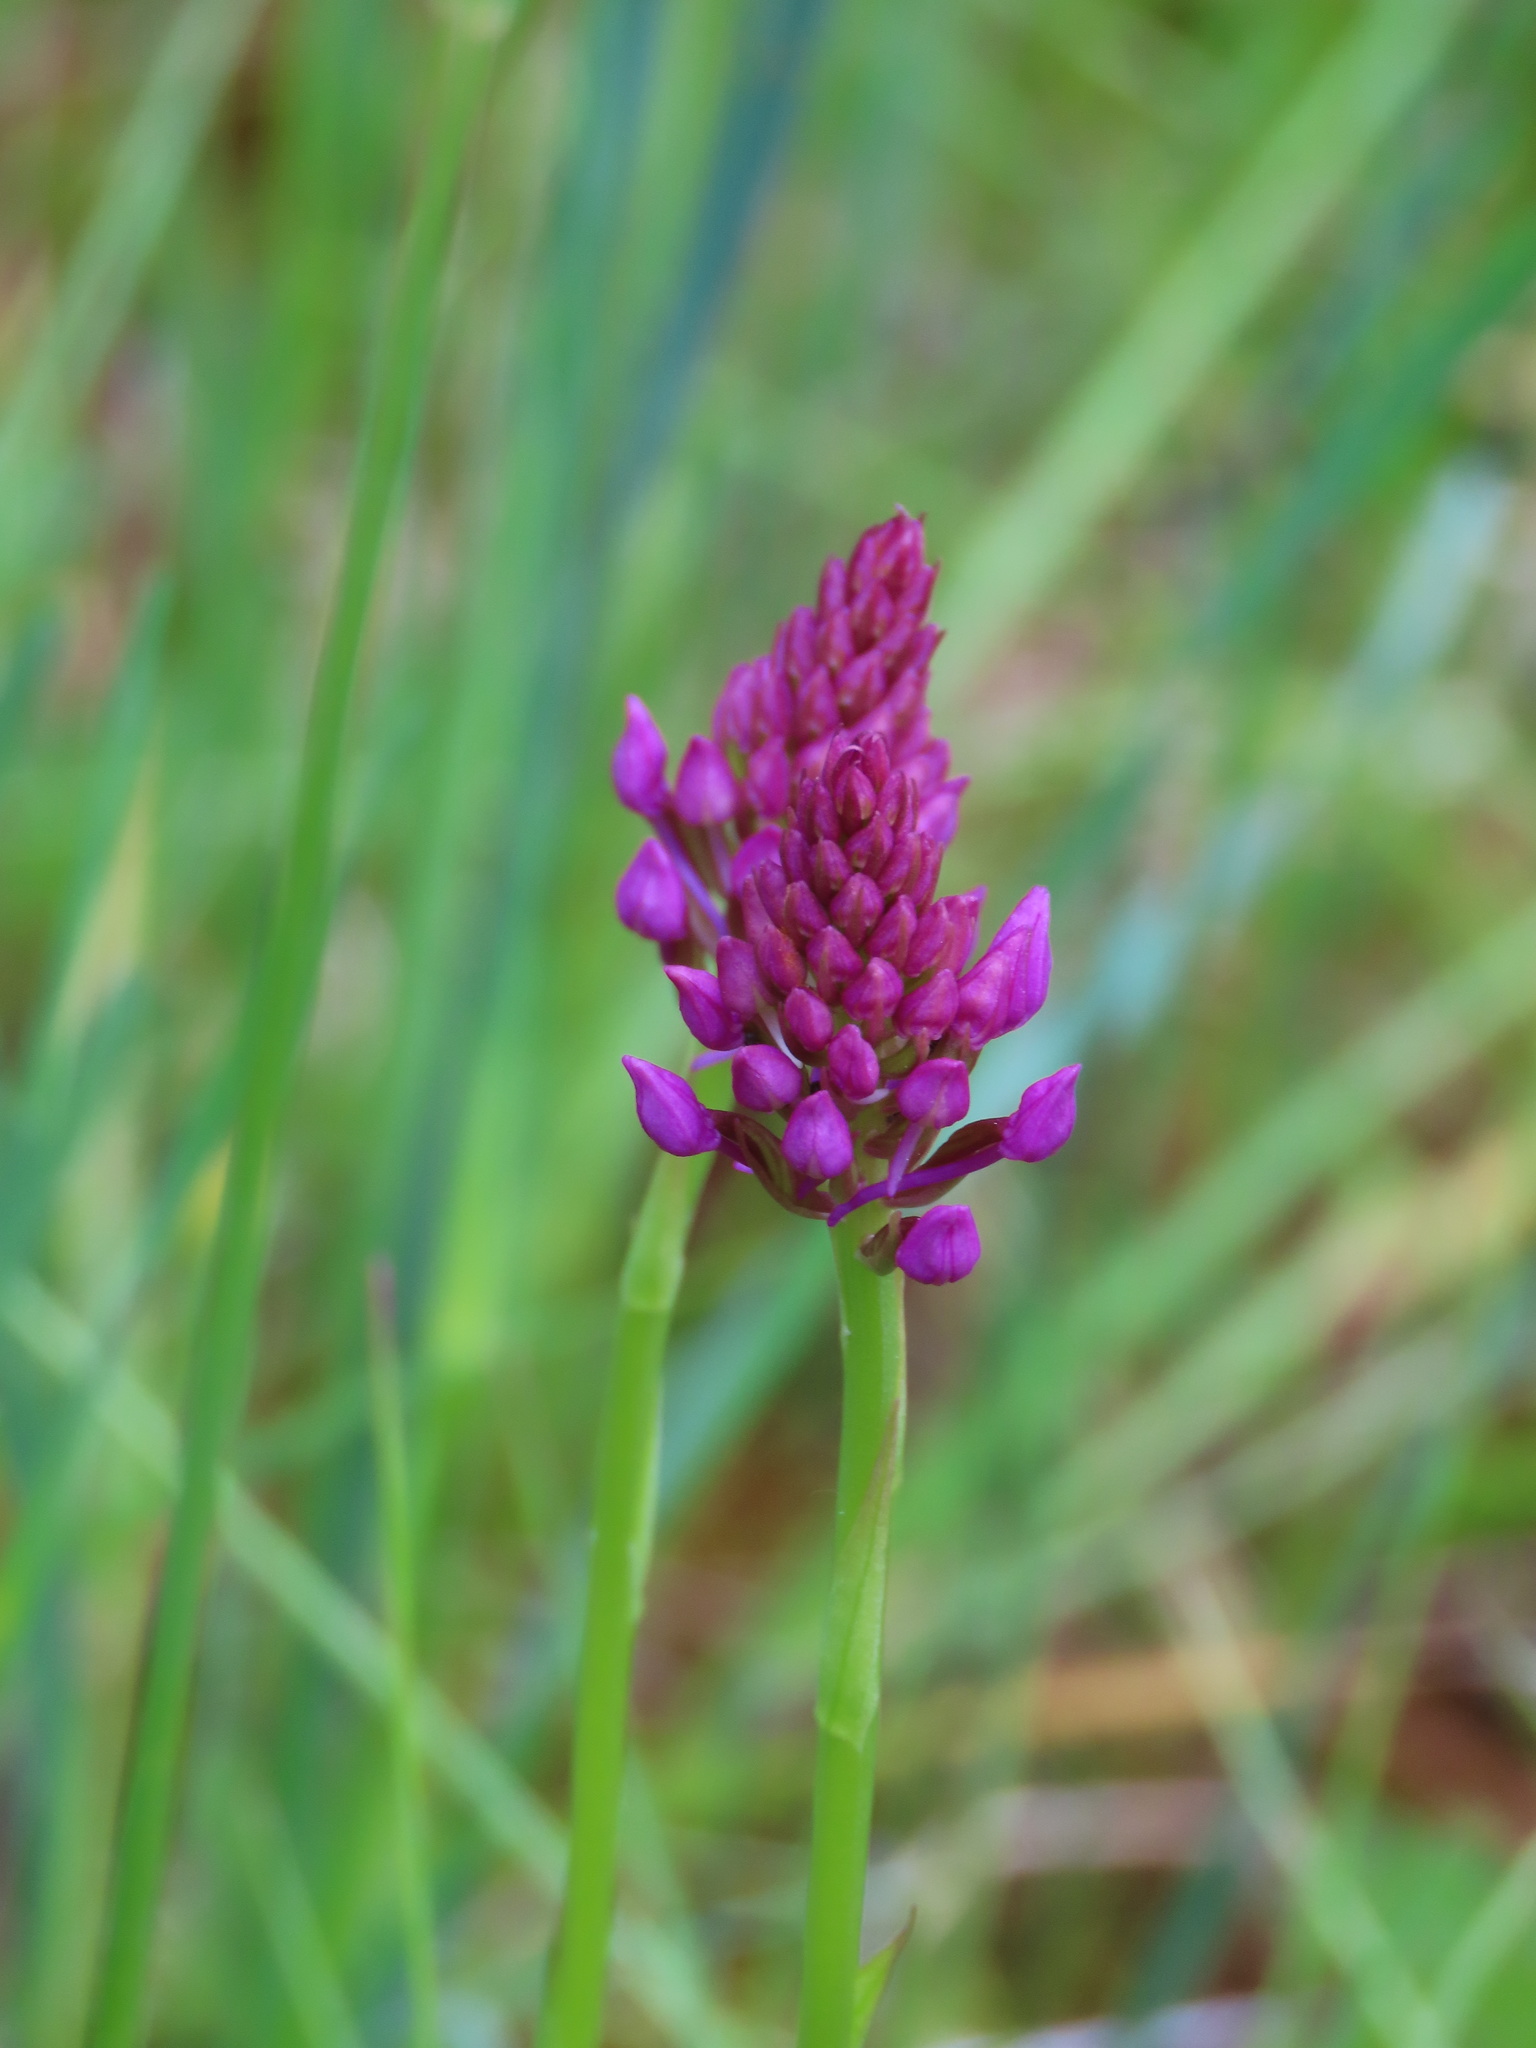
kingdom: Plantae
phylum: Tracheophyta
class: Liliopsida
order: Asparagales
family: Orchidaceae
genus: Anacamptis
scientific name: Anacamptis pyramidalis
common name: Pyramidal orchid
